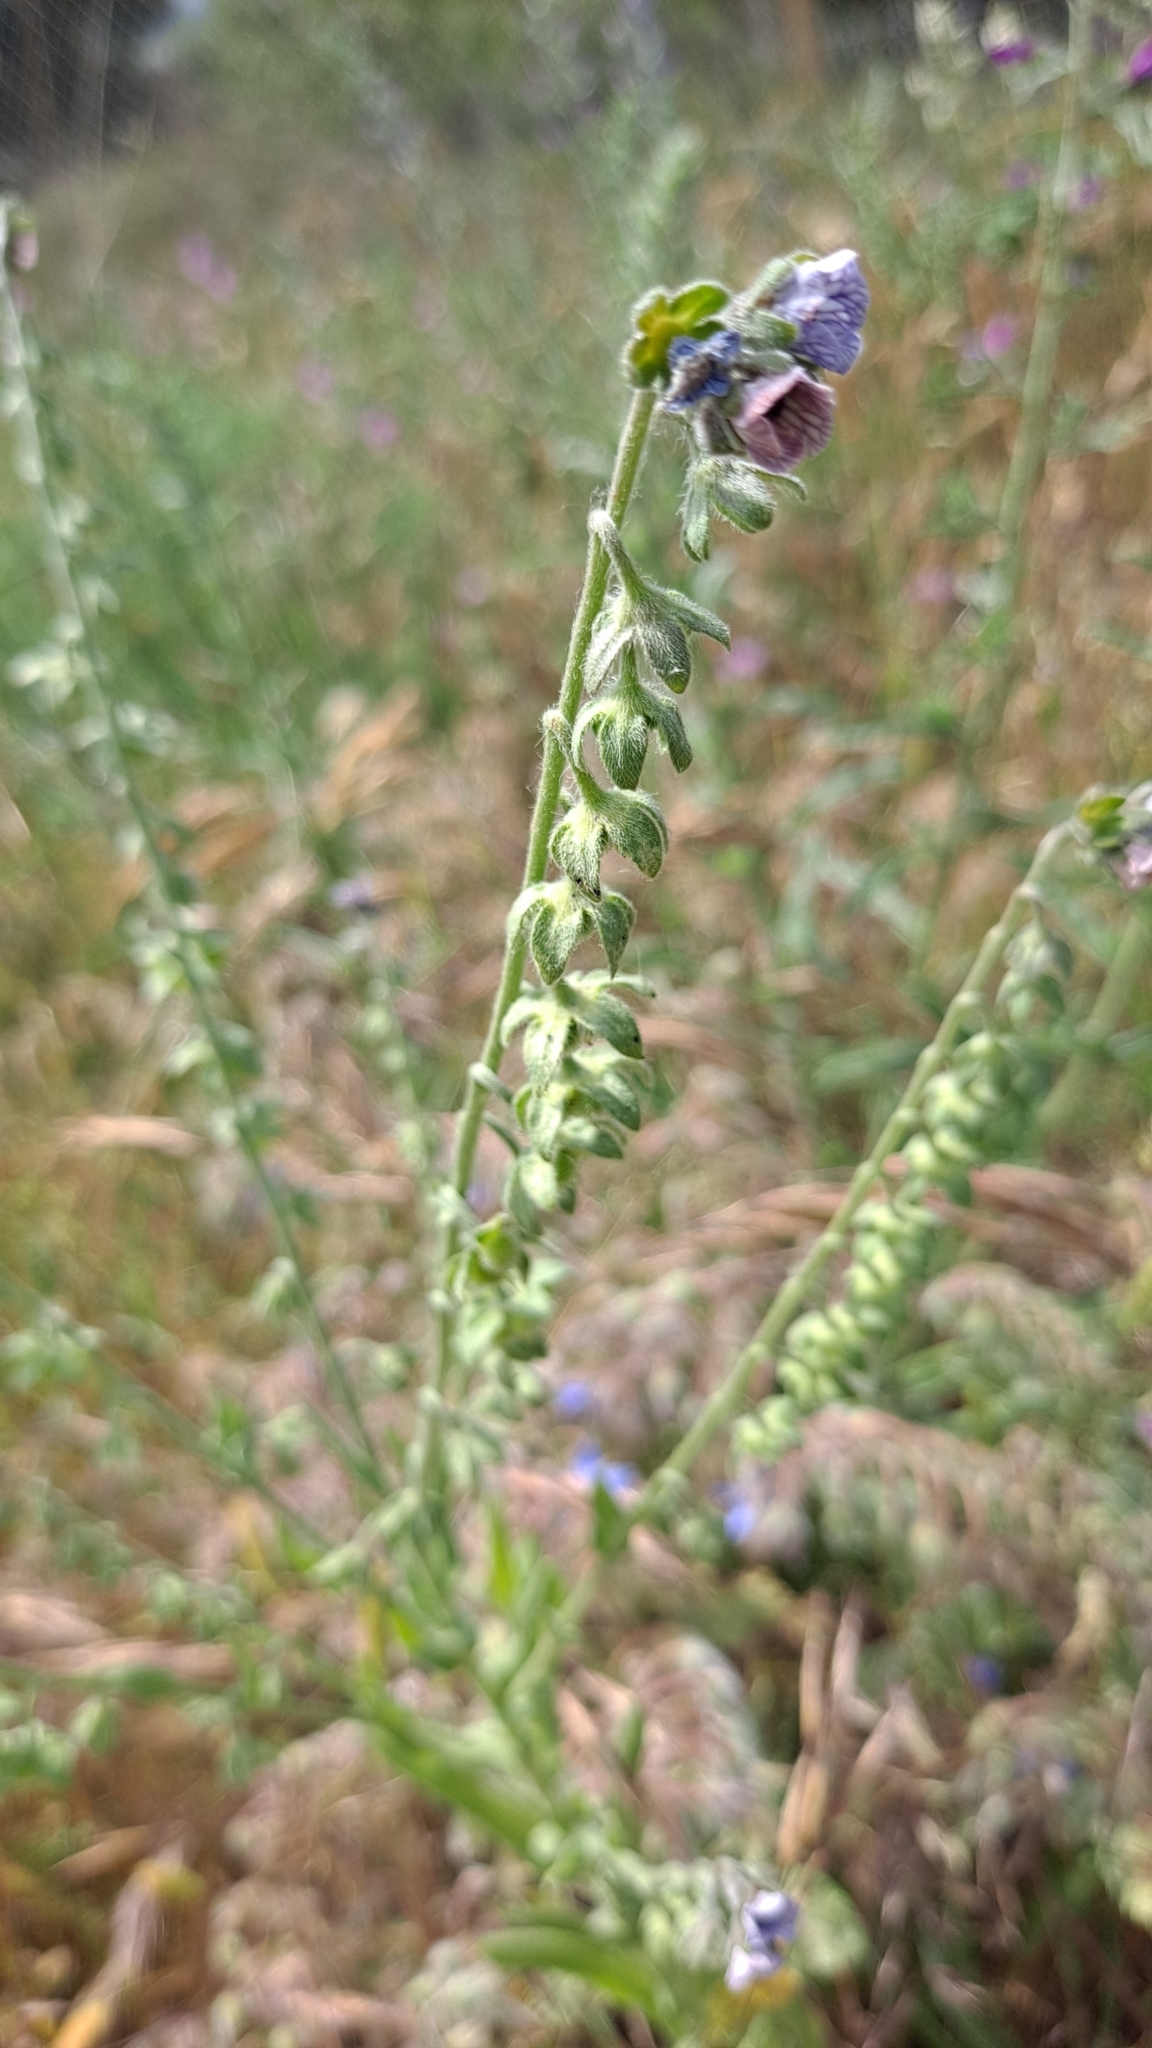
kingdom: Plantae
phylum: Tracheophyta
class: Magnoliopsida
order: Boraginales
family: Boraginaceae
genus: Cynoglossum
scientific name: Cynoglossum creticum
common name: Blue hound's tongue
